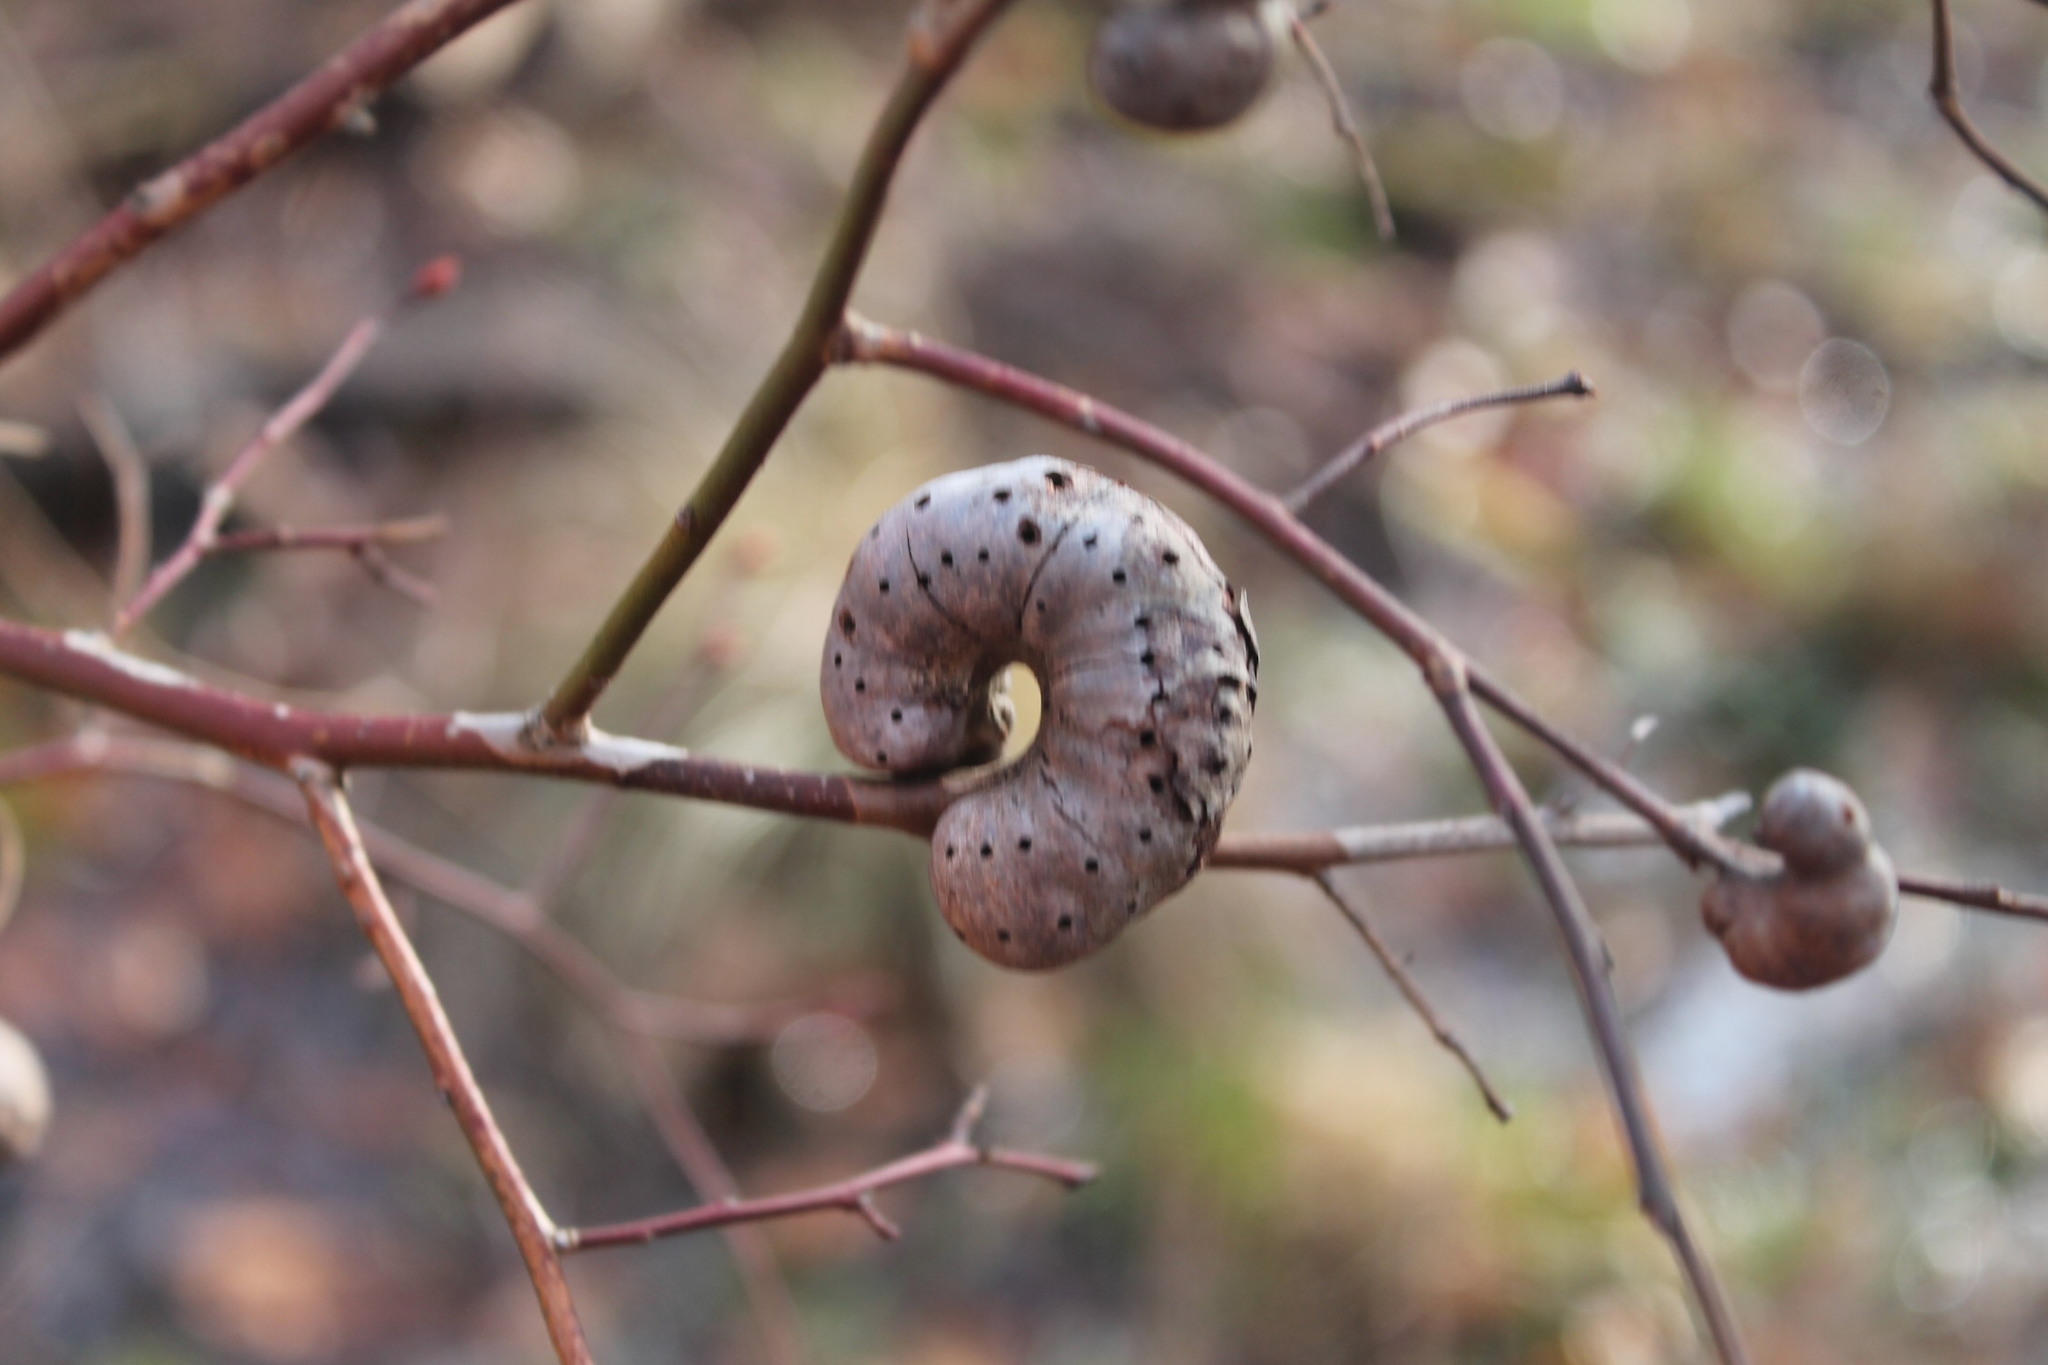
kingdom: Animalia
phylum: Arthropoda
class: Insecta
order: Hymenoptera
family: Pteromalidae
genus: Hemadas
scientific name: Hemadas nubilipennis
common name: Blueberry stem gall wasp
